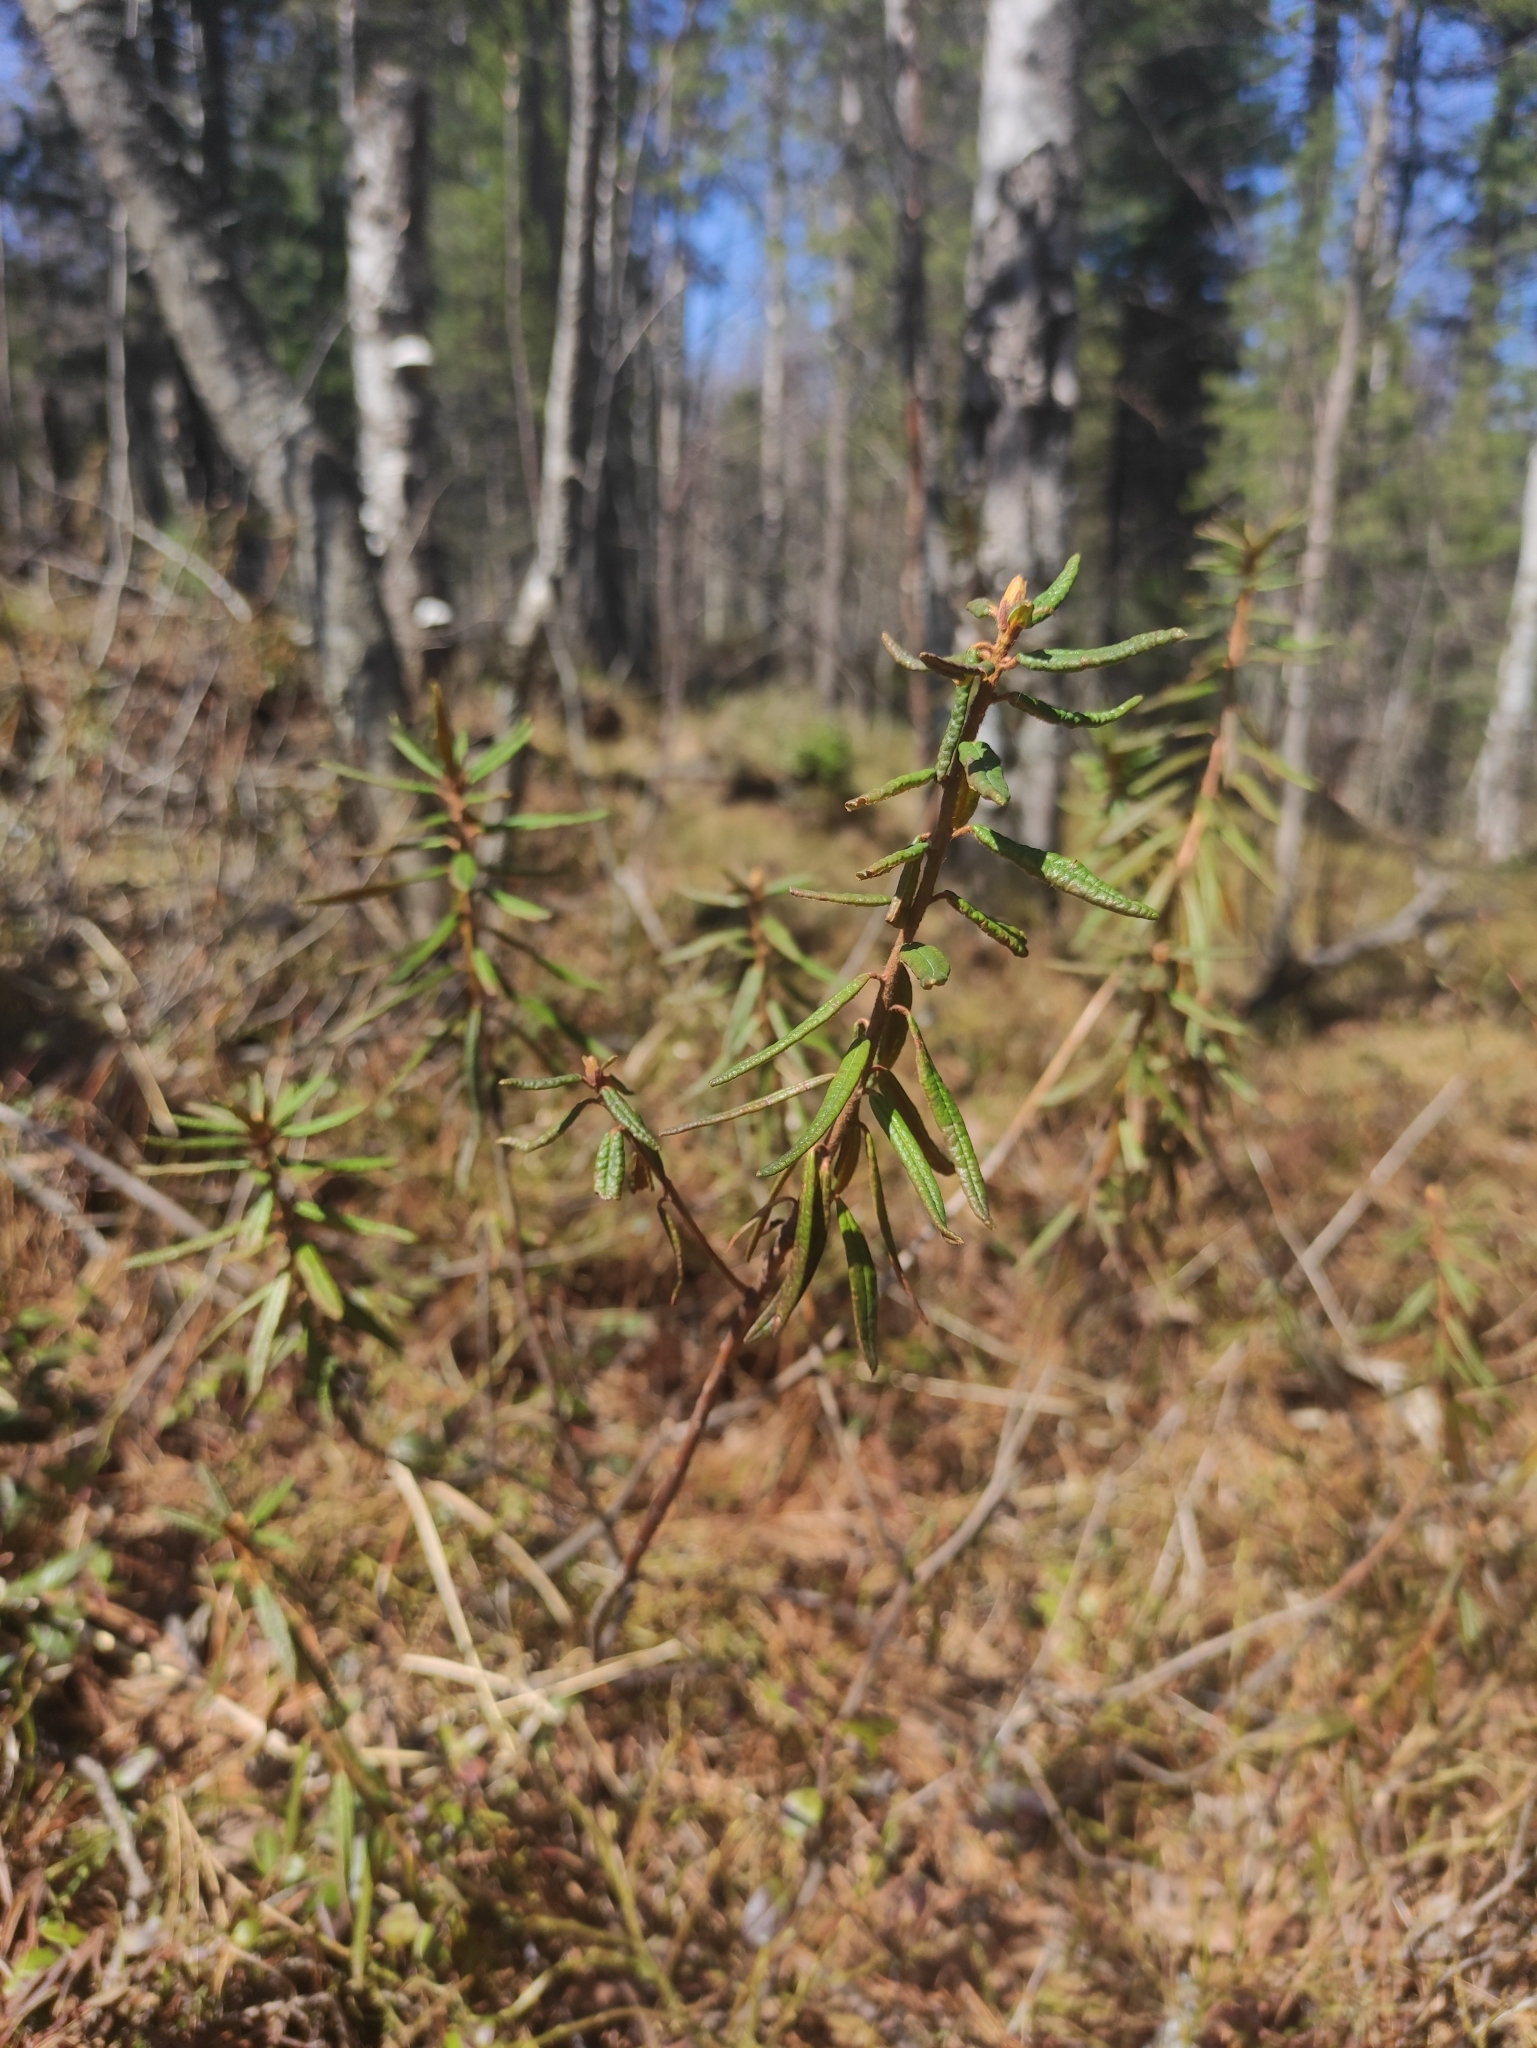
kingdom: Plantae
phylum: Tracheophyta
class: Magnoliopsida
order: Ericales
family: Ericaceae
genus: Rhododendron
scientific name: Rhododendron tomentosum
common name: Marsh labrador tea
